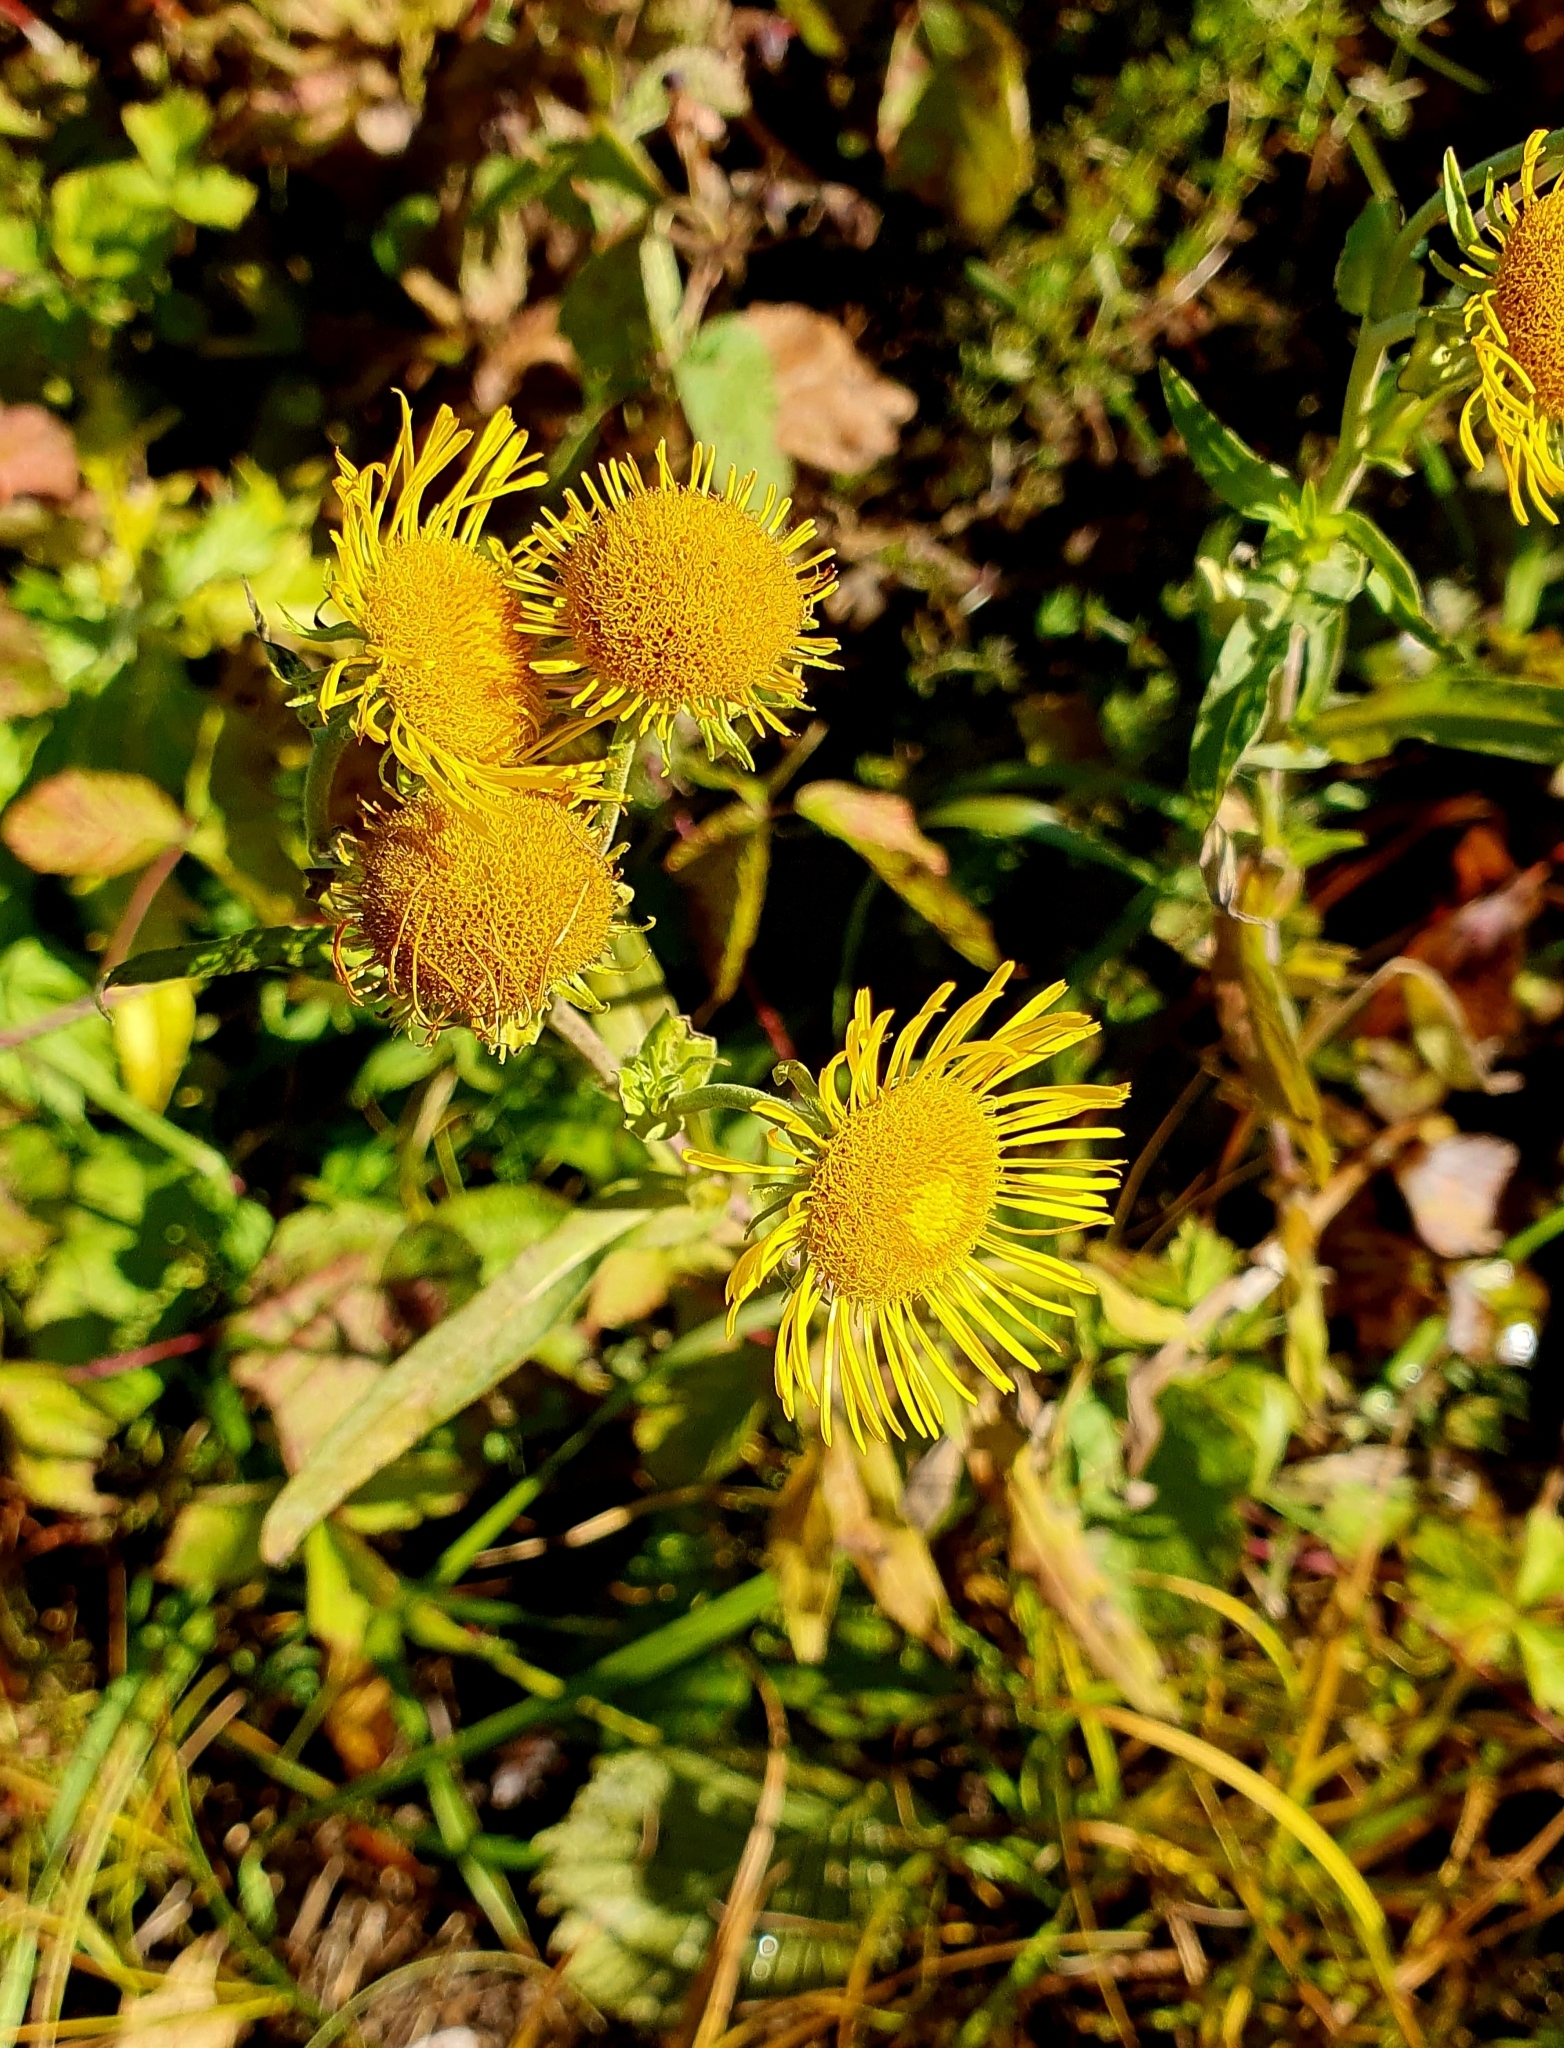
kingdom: Plantae
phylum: Tracheophyta
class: Magnoliopsida
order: Asterales
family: Asteraceae
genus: Pentanema
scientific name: Pentanema britannicum
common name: British elecampane
